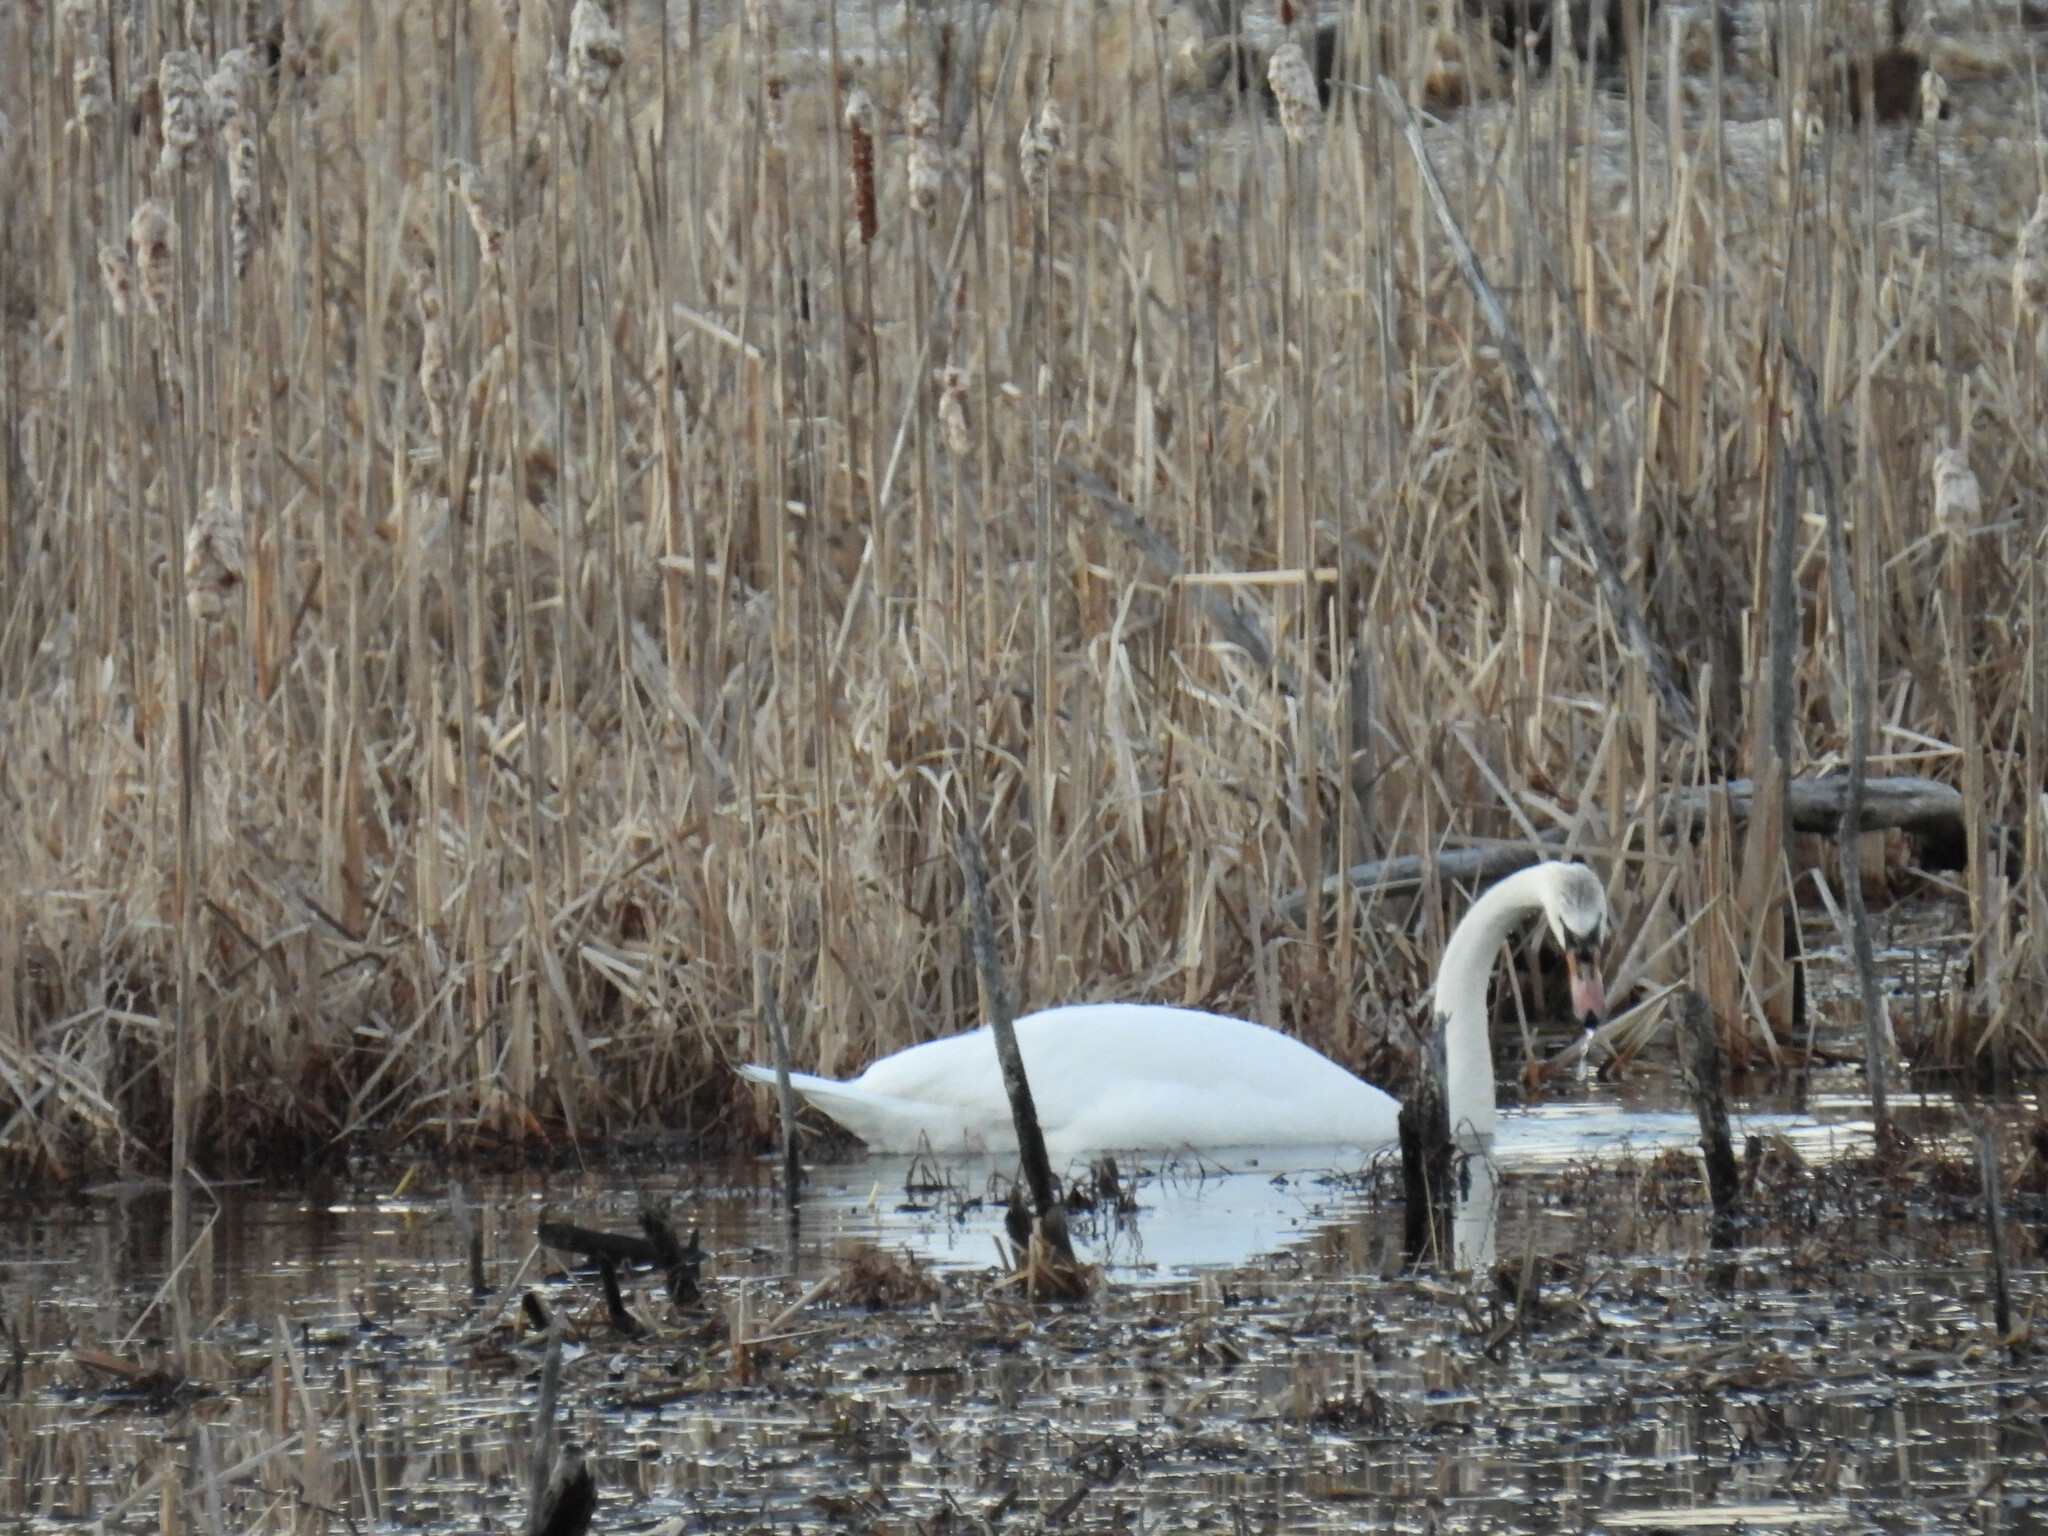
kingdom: Animalia
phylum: Chordata
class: Aves
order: Anseriformes
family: Anatidae
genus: Cygnus
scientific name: Cygnus olor
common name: Mute swan
